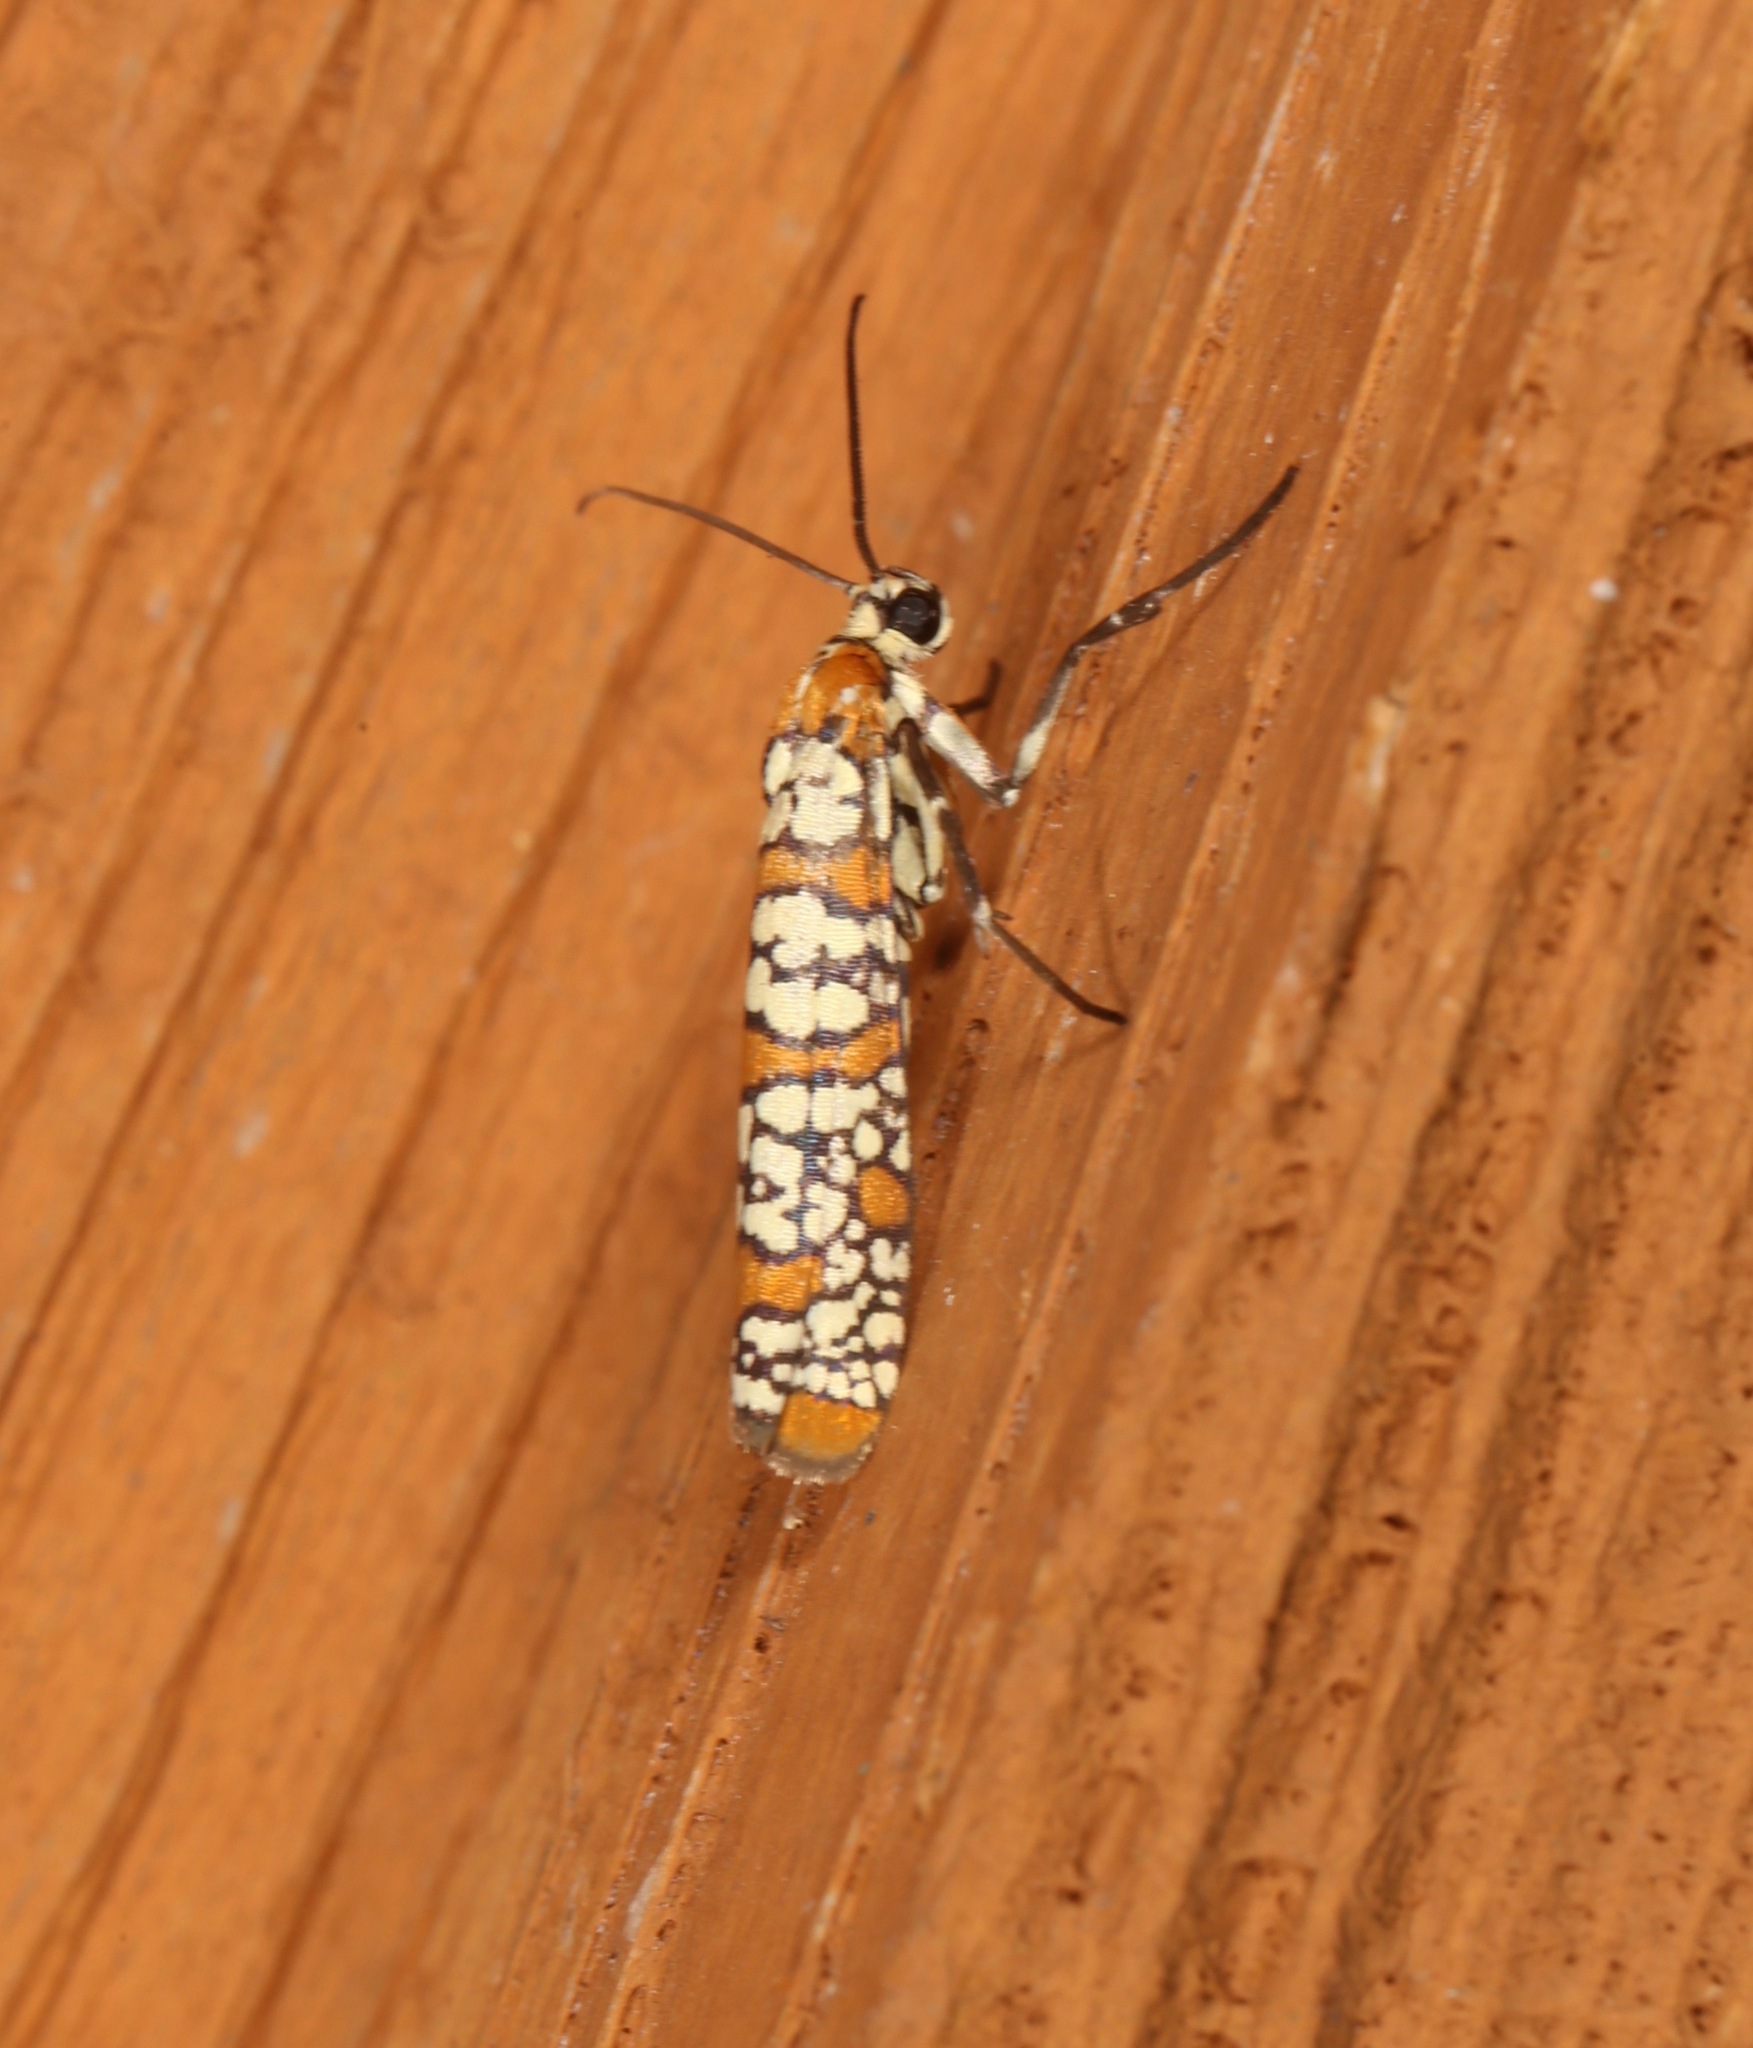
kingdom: Animalia
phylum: Arthropoda
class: Insecta
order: Lepidoptera
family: Attevidae
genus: Atteva
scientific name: Atteva punctella
